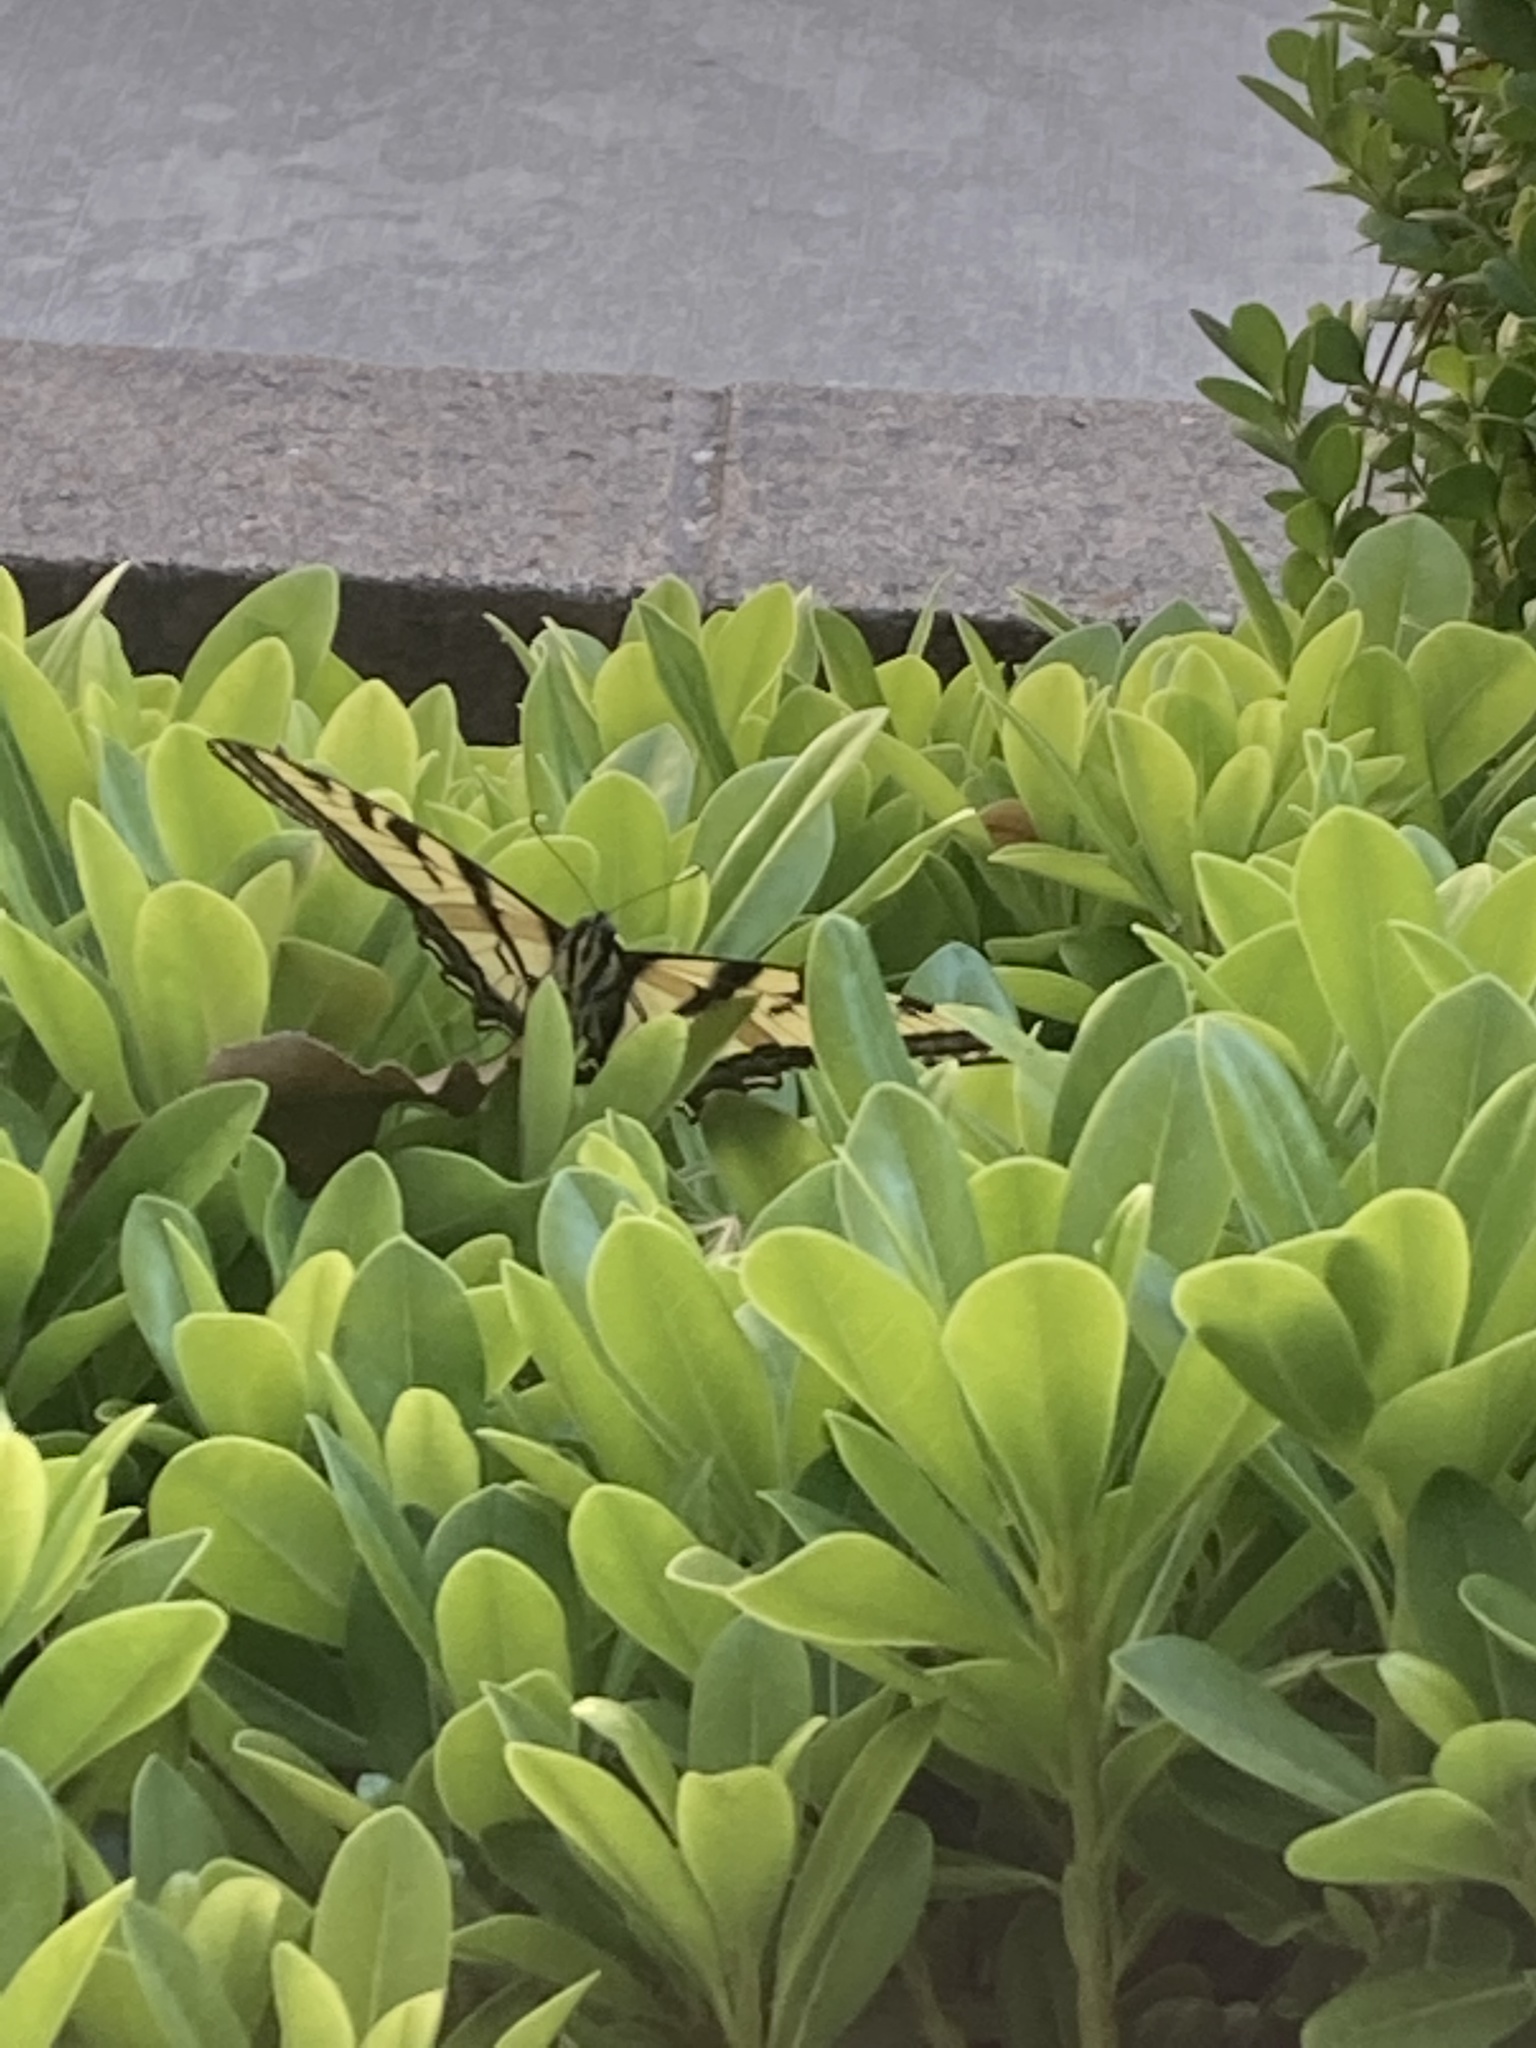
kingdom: Animalia
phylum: Arthropoda
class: Insecta
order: Lepidoptera
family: Papilionidae
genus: Papilio
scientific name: Papilio rutulus
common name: Western tiger swallowtail
